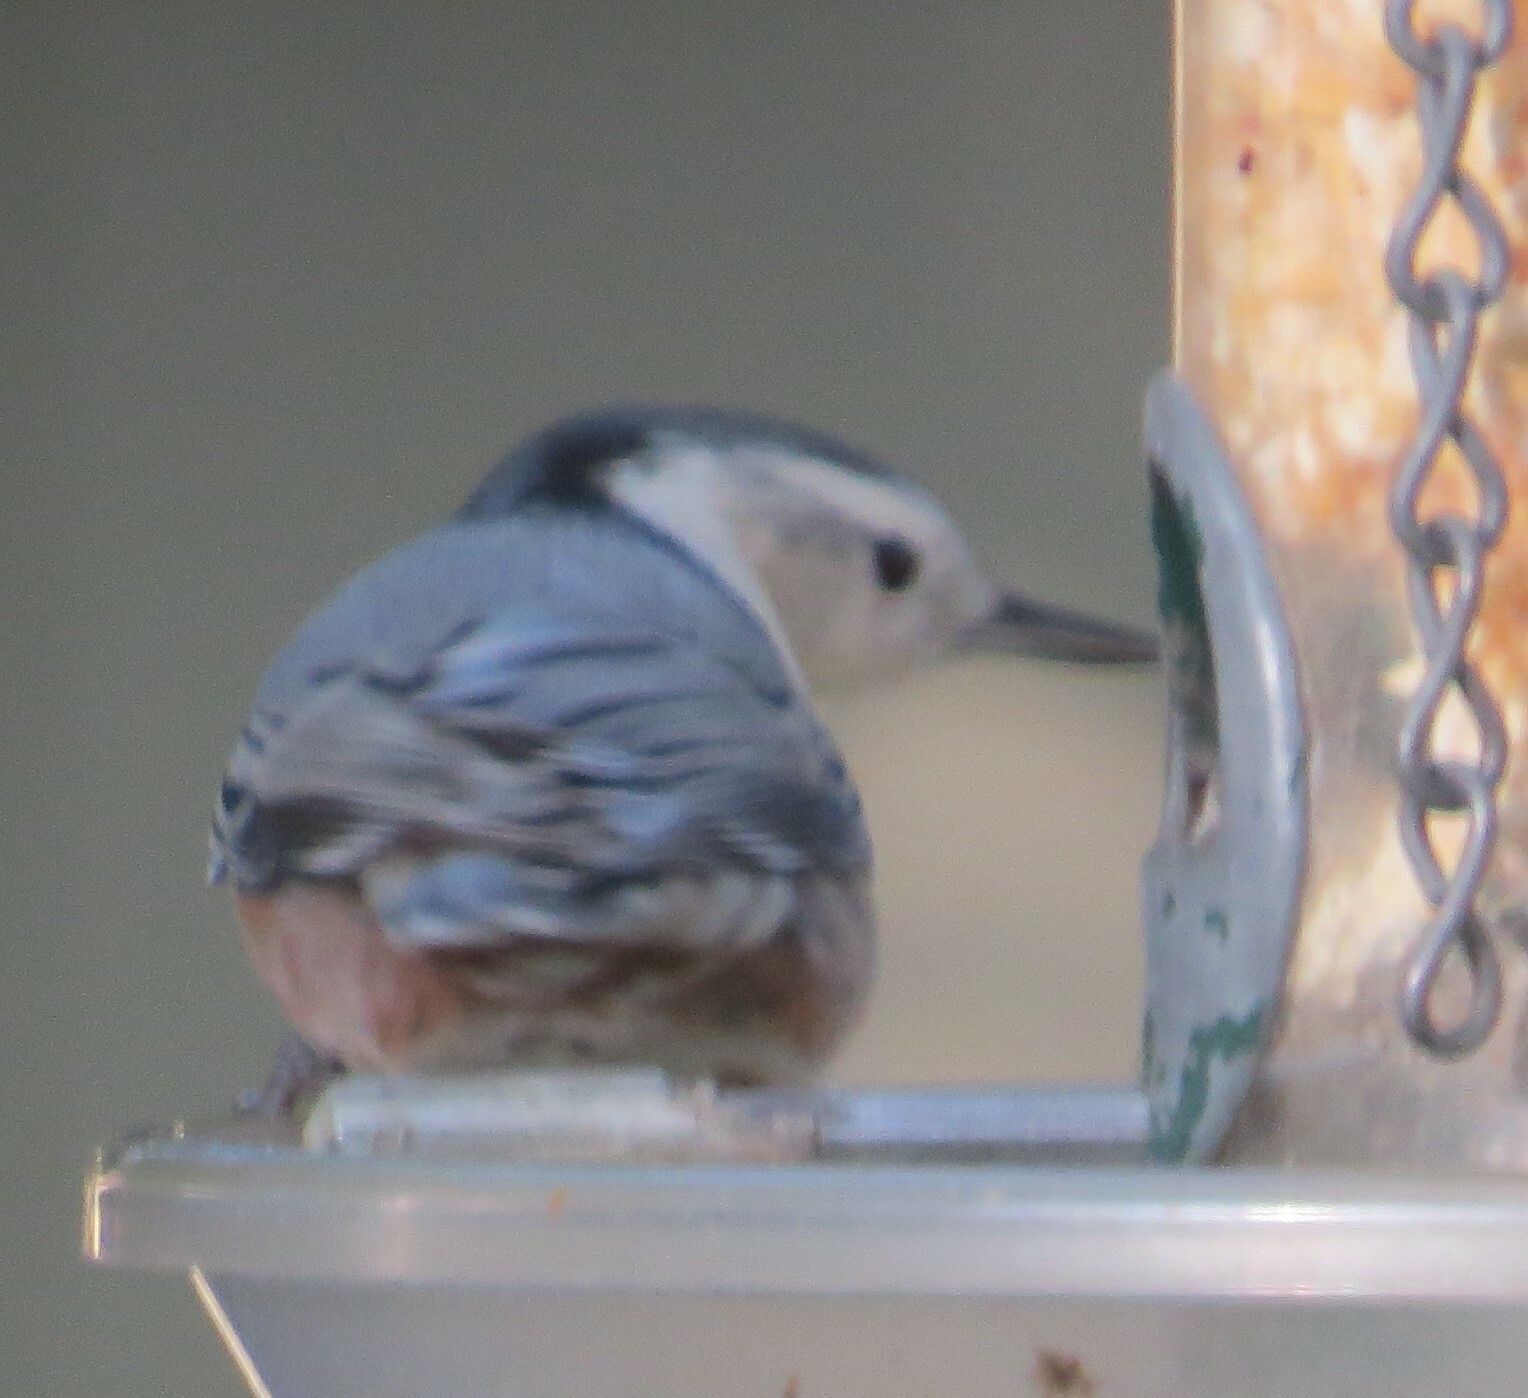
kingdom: Animalia
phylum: Chordata
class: Aves
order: Passeriformes
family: Sittidae
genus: Sitta
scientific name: Sitta carolinensis
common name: White-breasted nuthatch
